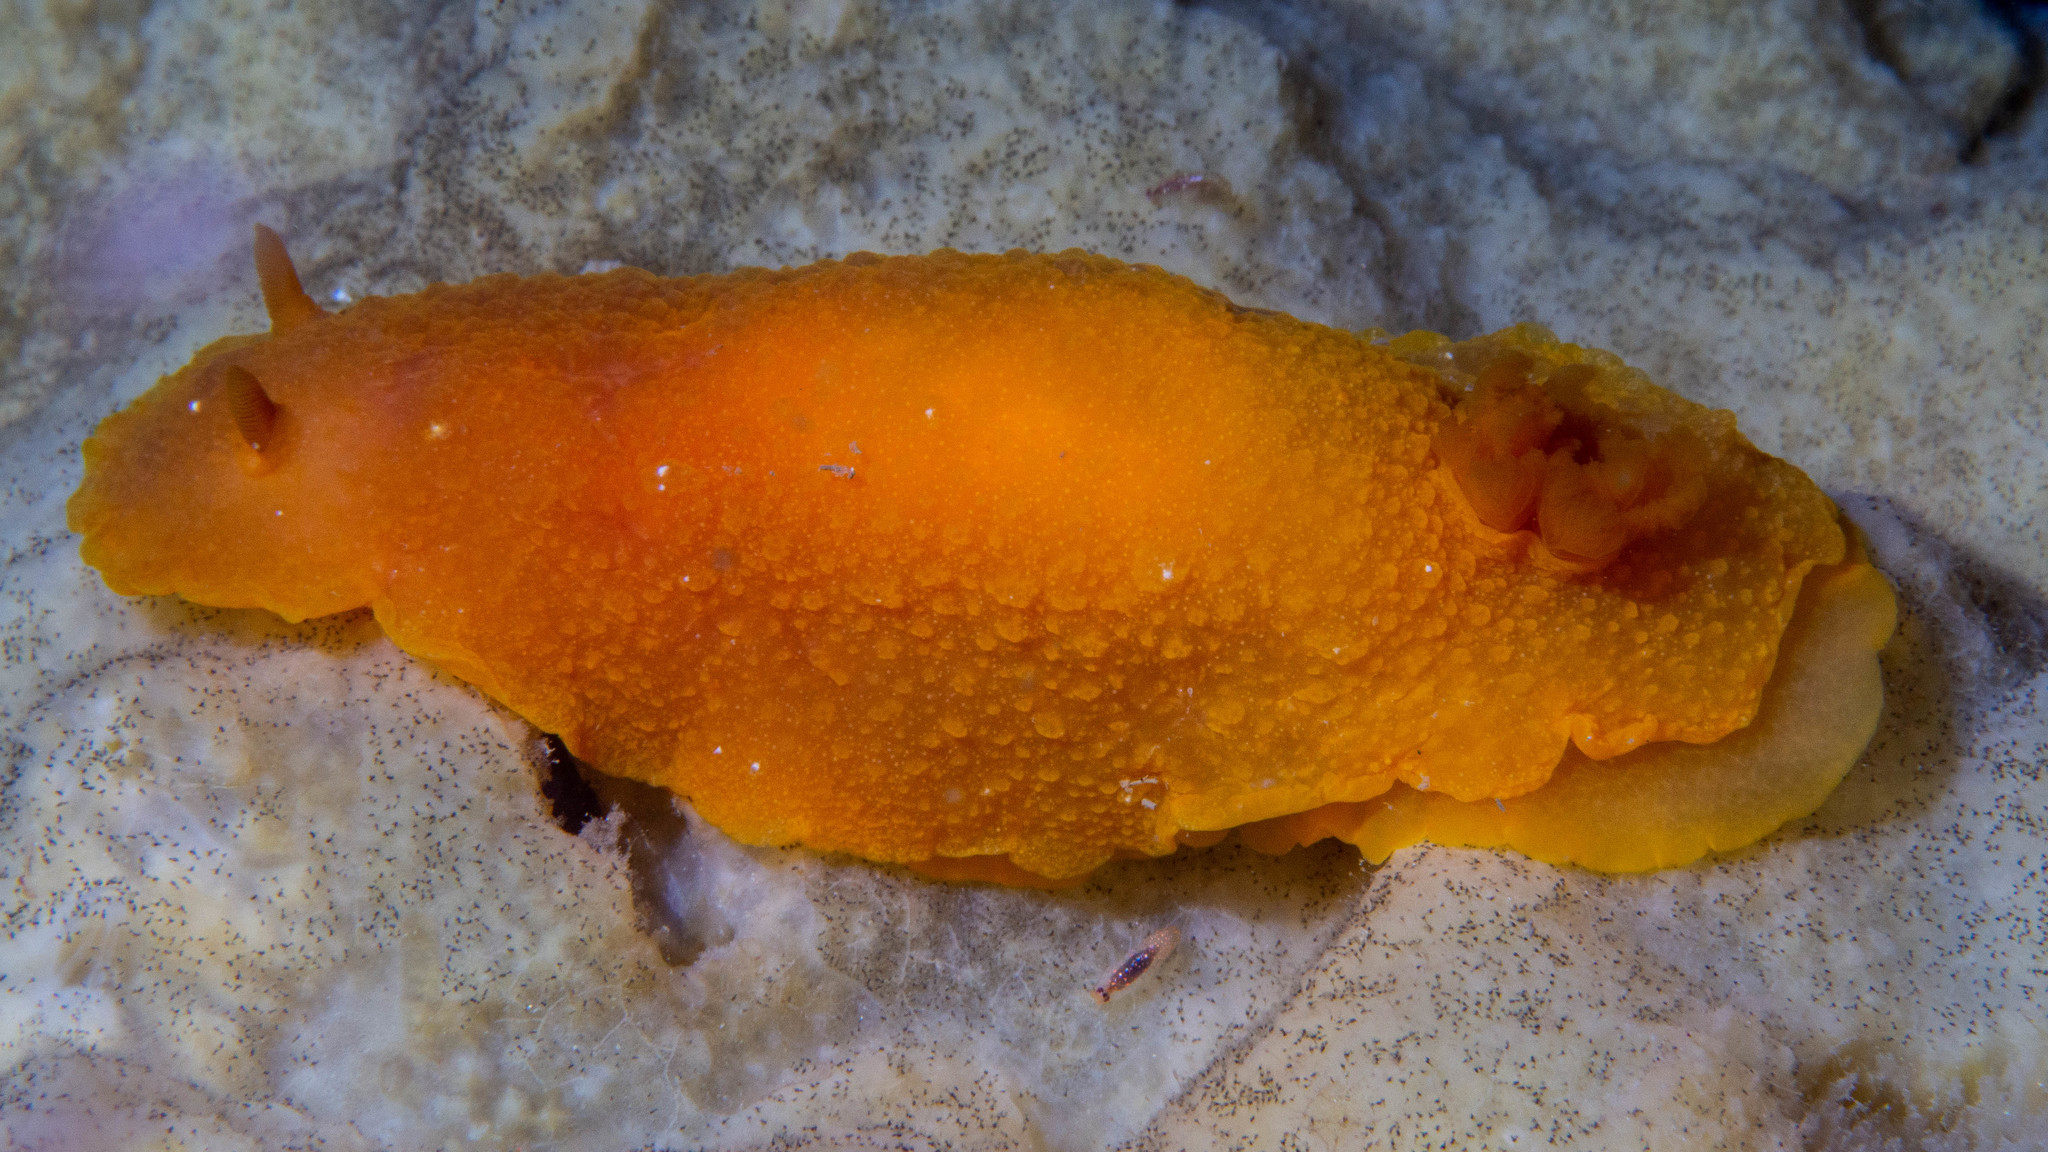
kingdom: Animalia
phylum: Mollusca
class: Gastropoda
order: Nudibranchia
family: Dendrodorididae
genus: Doriopsilla
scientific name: Doriopsilla carneola
